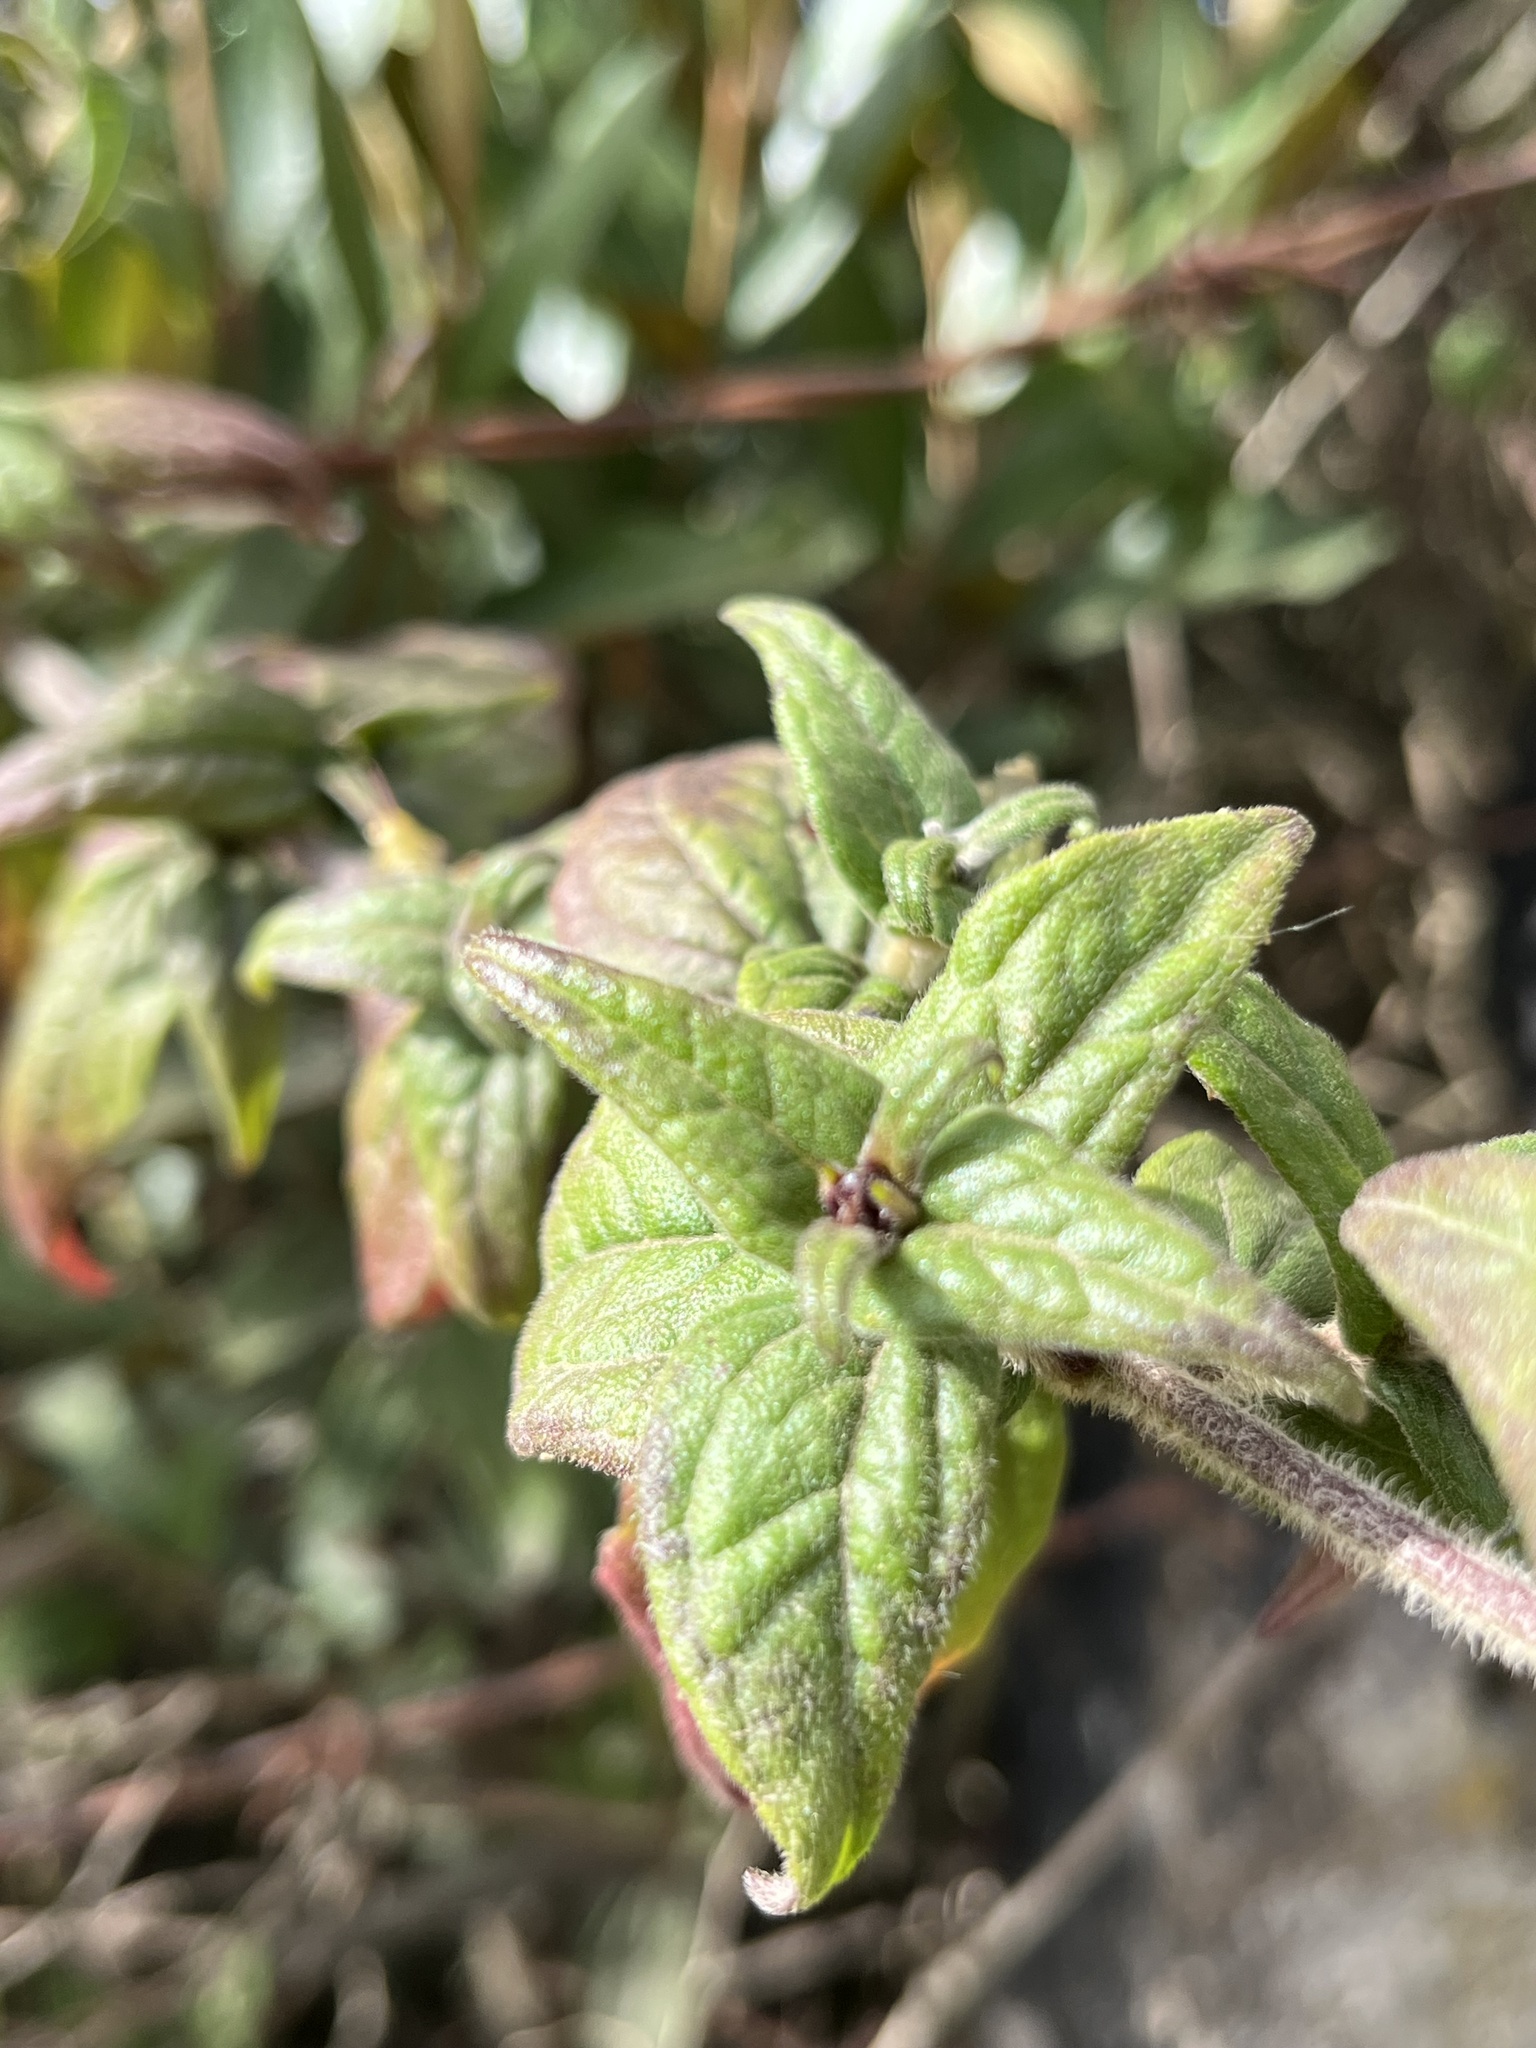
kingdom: Plantae
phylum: Tracheophyta
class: Magnoliopsida
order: Asterales
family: Asteraceae
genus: Alloispermum
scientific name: Alloispermum caracasanum
